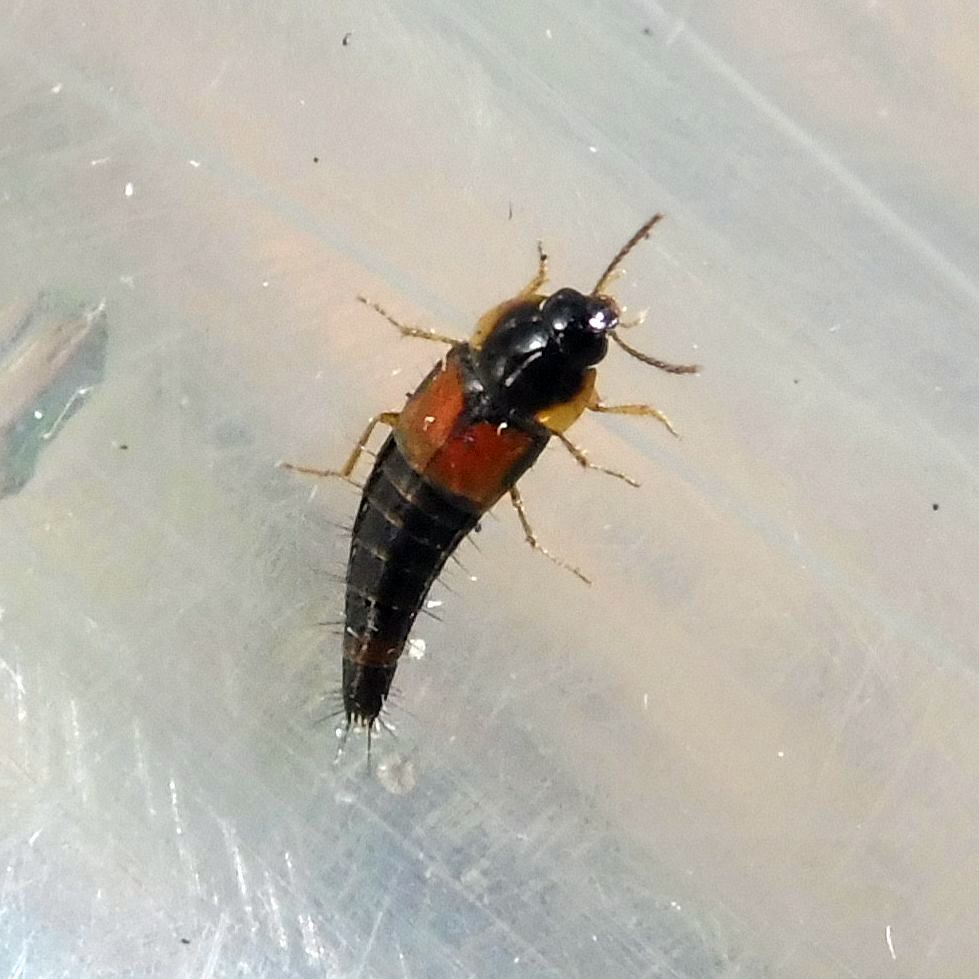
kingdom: Animalia
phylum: Arthropoda
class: Insecta
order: Coleoptera
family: Staphylinidae
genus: Tachyporus
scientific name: Tachyporus hypnorum
